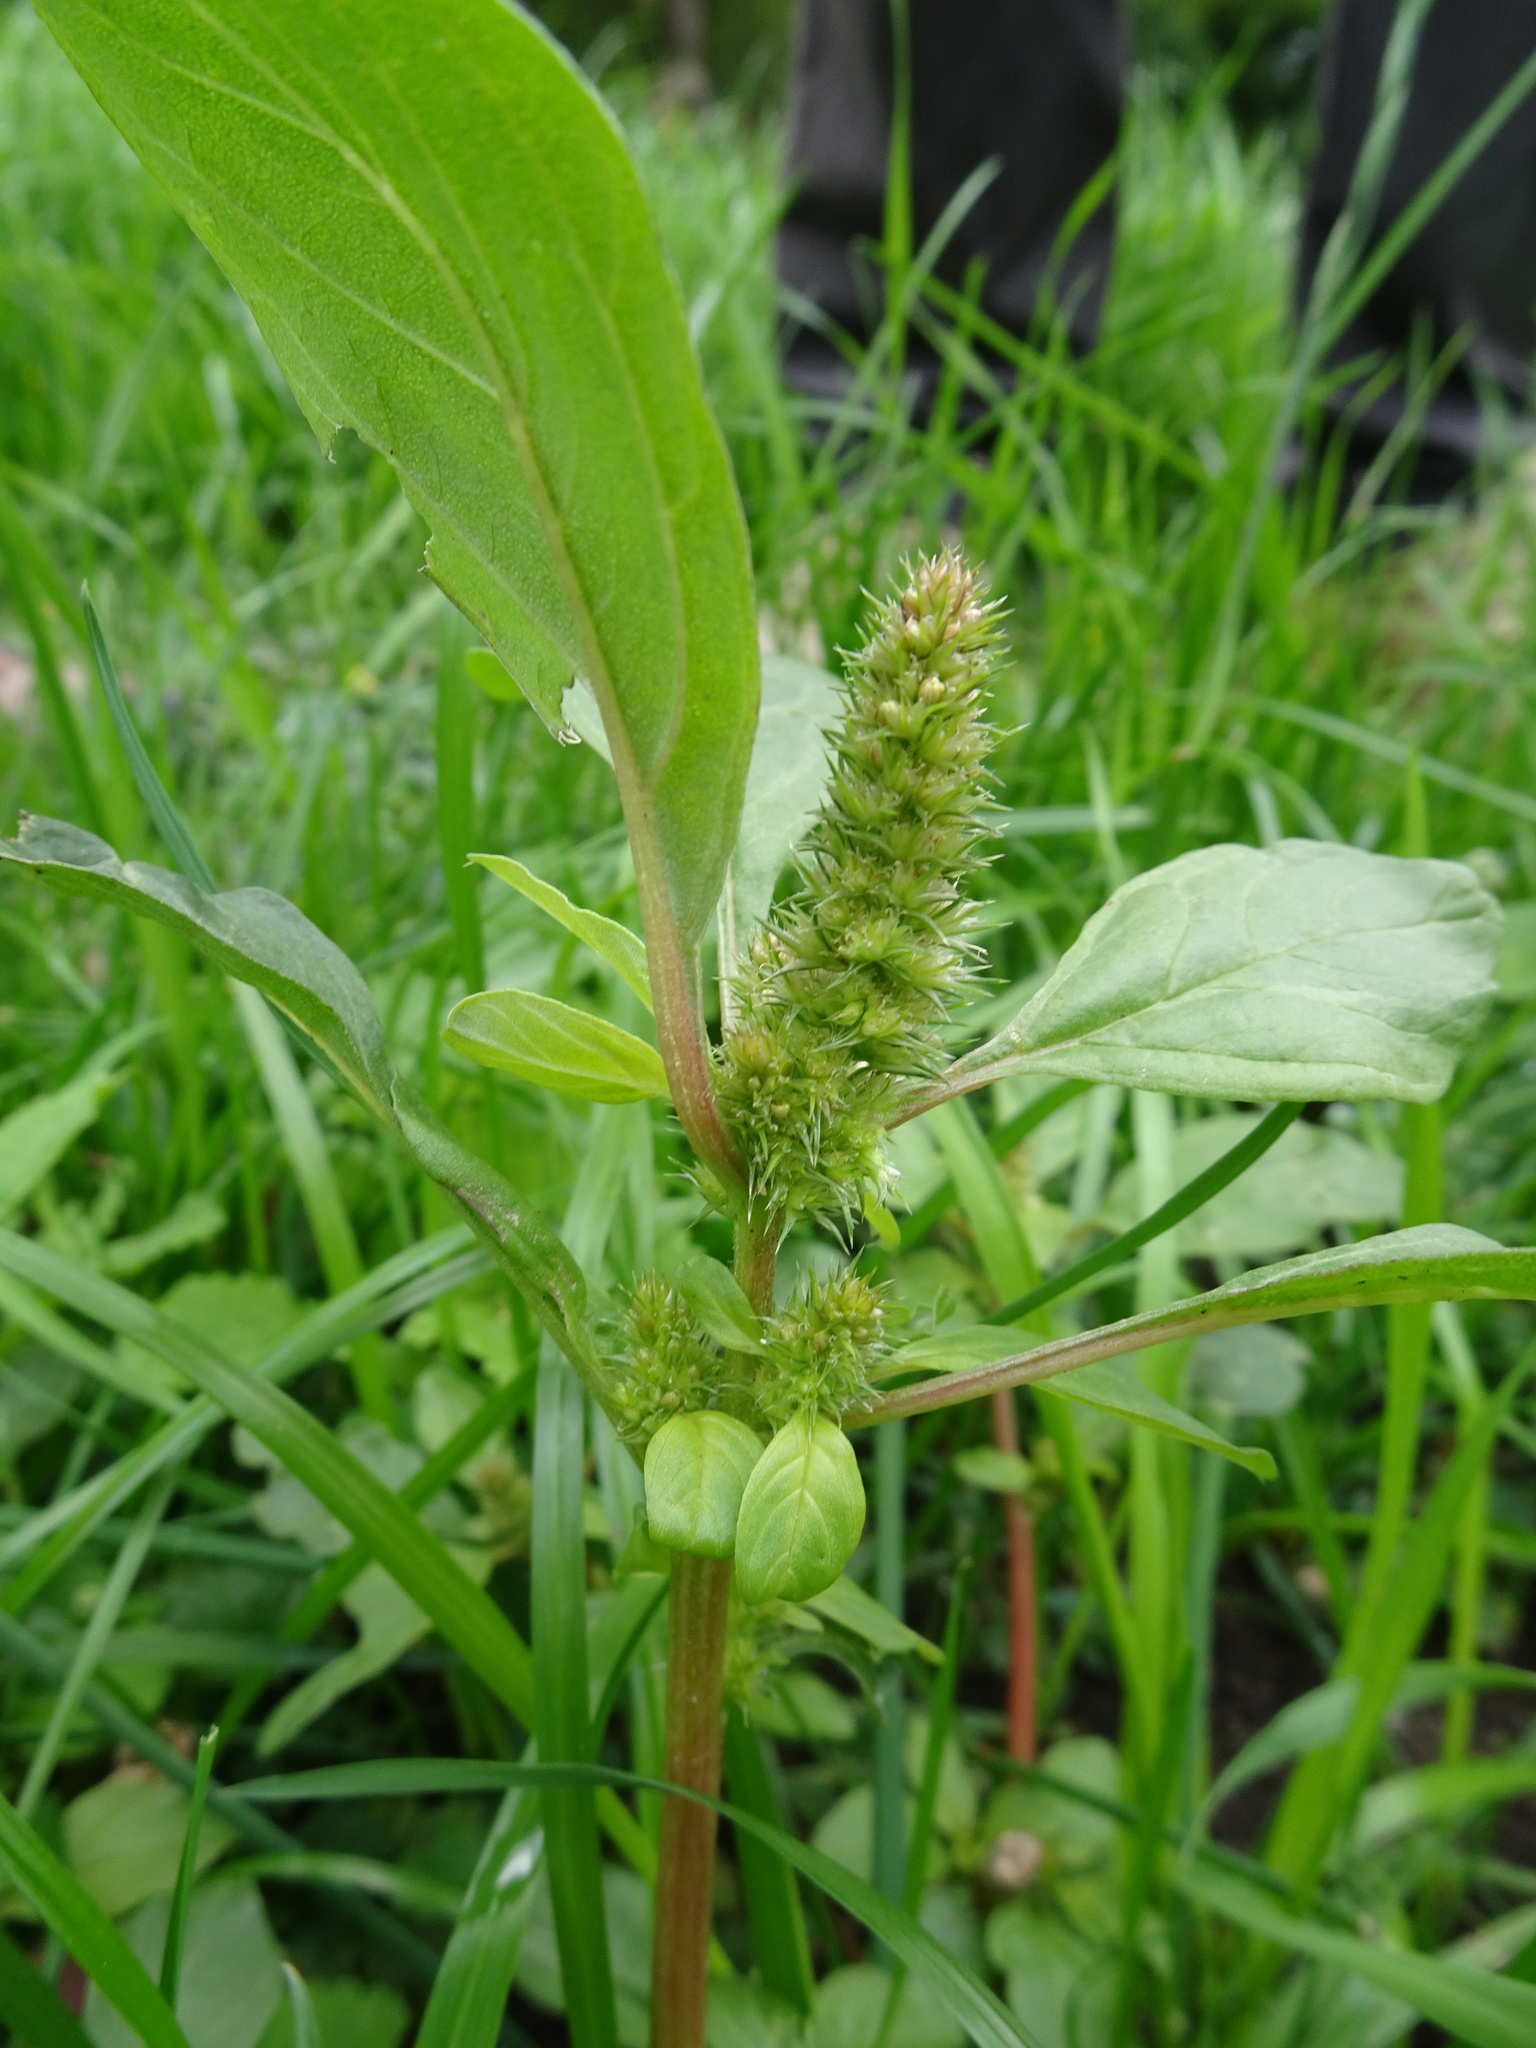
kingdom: Plantae
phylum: Tracheophyta
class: Magnoliopsida
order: Caryophyllales
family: Amaranthaceae
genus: Amaranthus
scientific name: Amaranthus powellii
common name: Powell's amaranth
